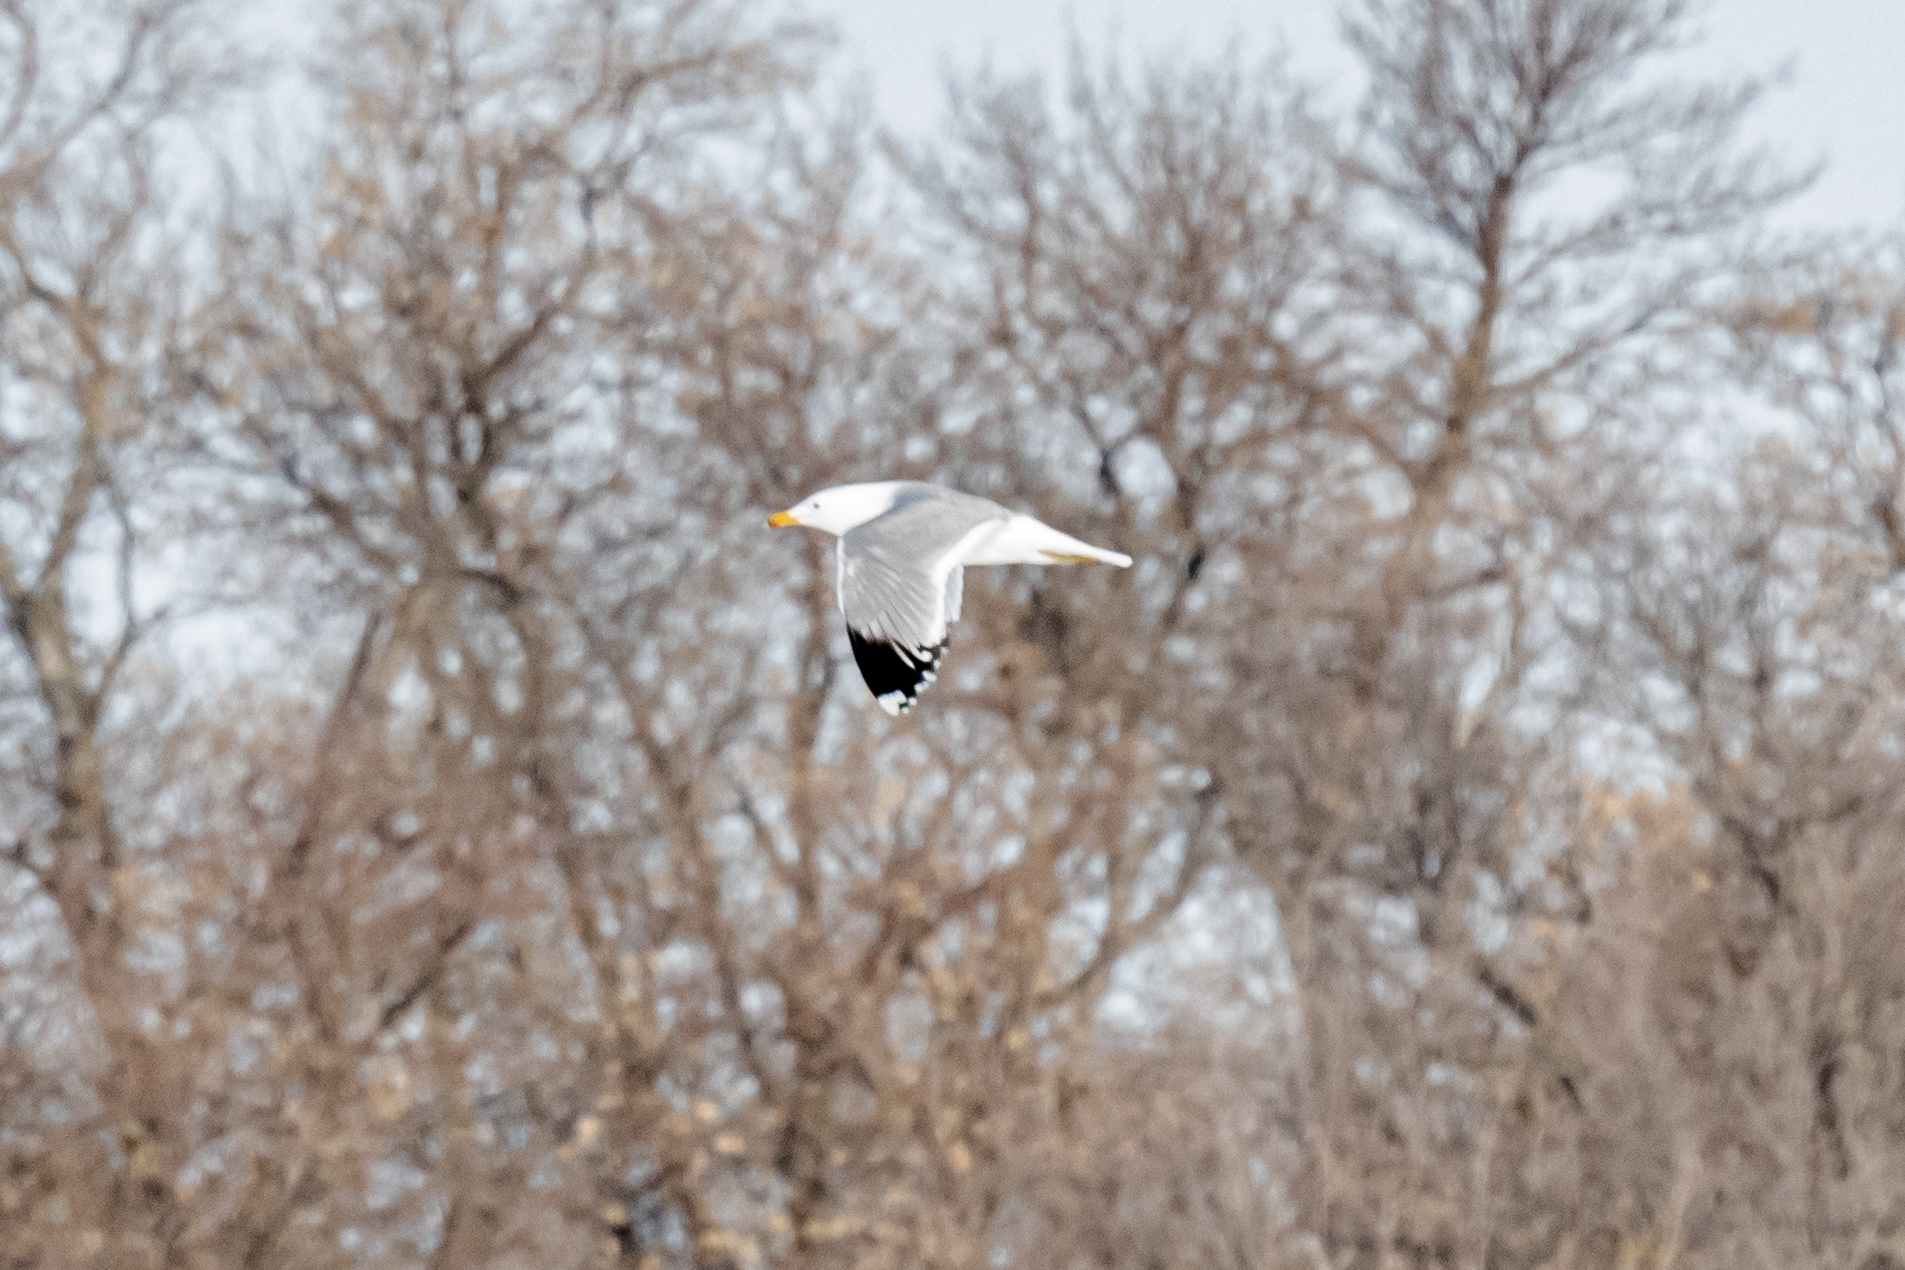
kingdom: Animalia
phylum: Chordata
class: Aves
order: Charadriiformes
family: Laridae
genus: Larus
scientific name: Larus delawarensis
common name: Ring-billed gull
